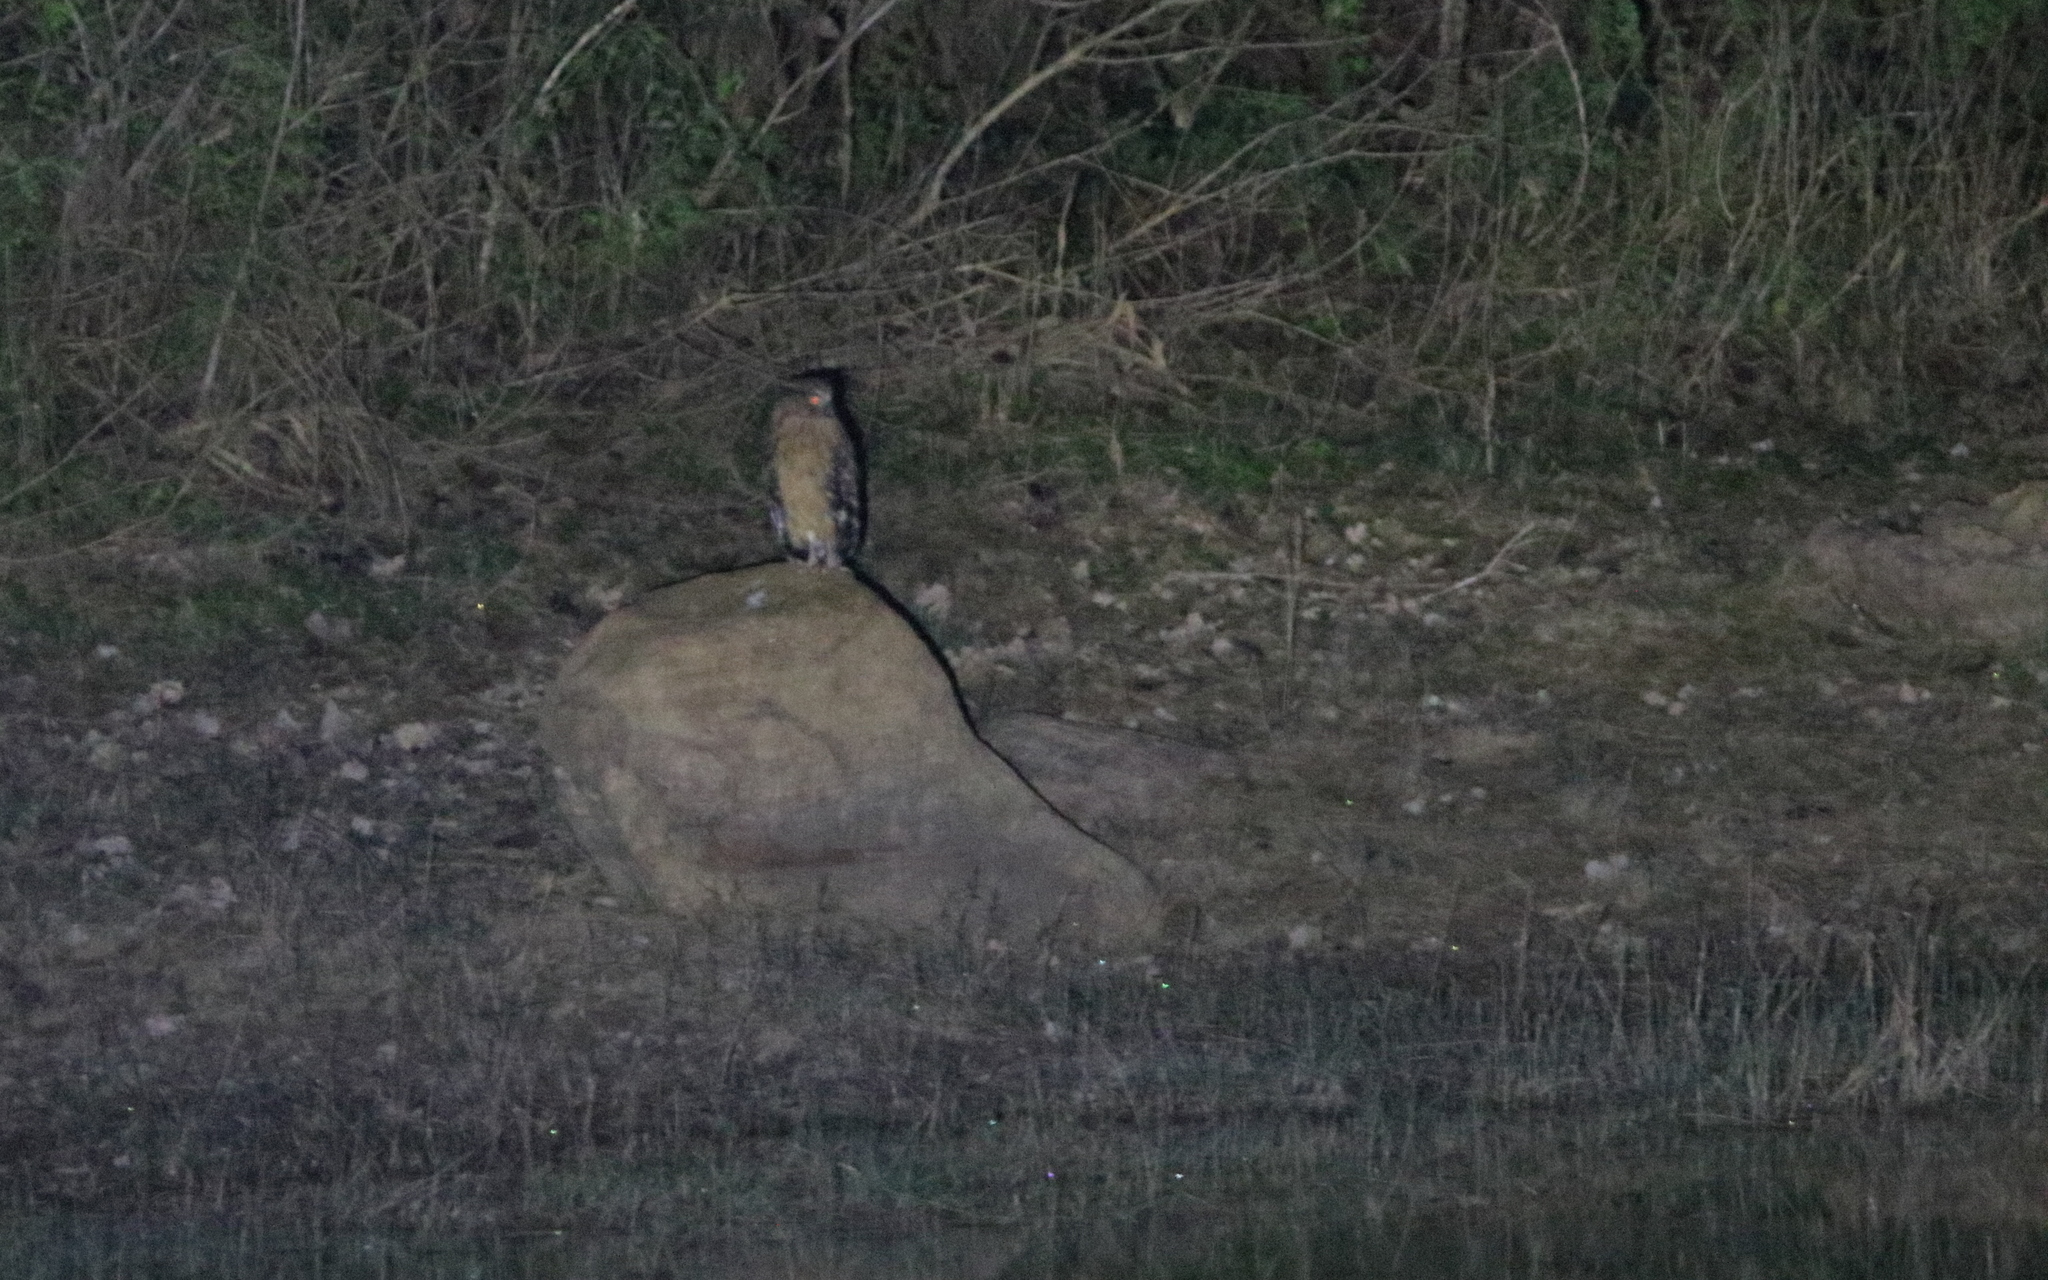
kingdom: Animalia
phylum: Chordata
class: Aves
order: Strigiformes
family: Strigidae
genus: Ketupa
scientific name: Ketupa ketupu
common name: Buffy fish-owl
